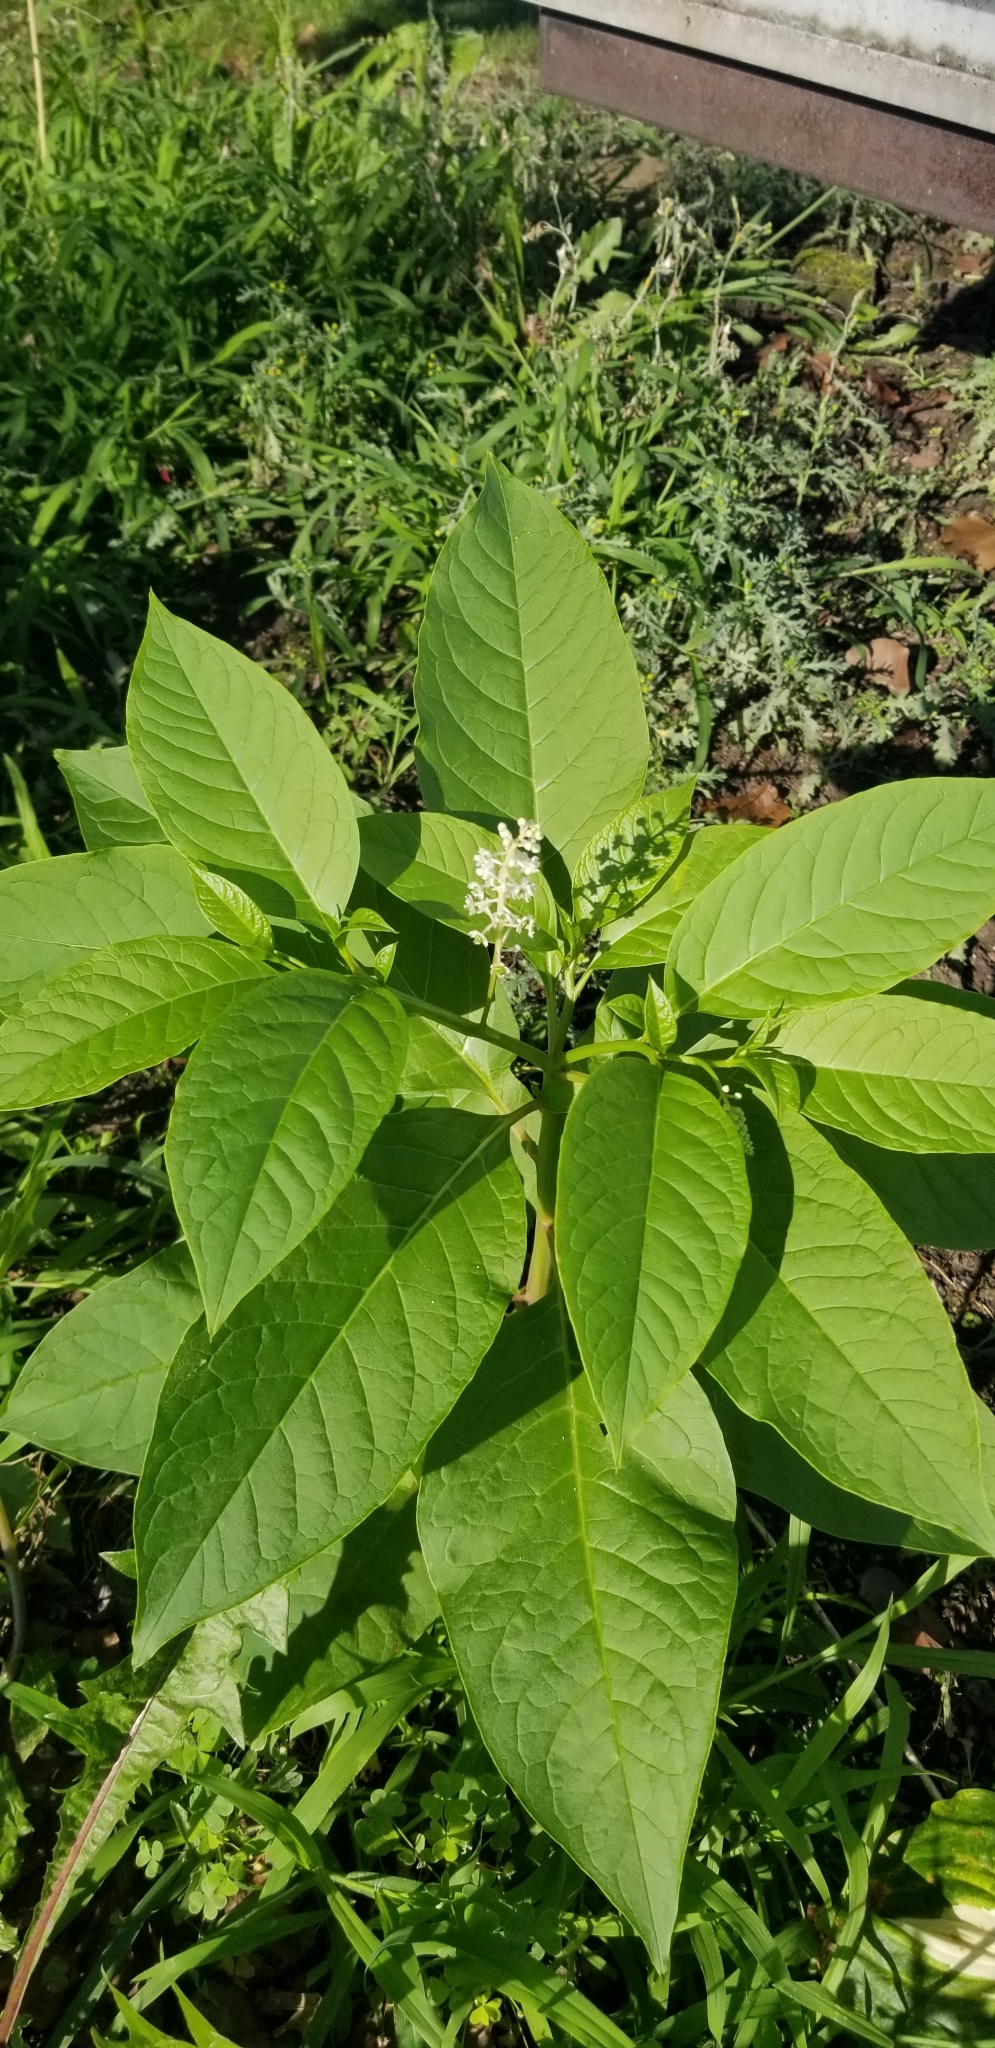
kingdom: Plantae
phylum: Tracheophyta
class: Magnoliopsida
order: Caryophyllales
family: Phytolaccaceae
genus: Phytolacca
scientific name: Phytolacca americana
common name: American pokeweed
